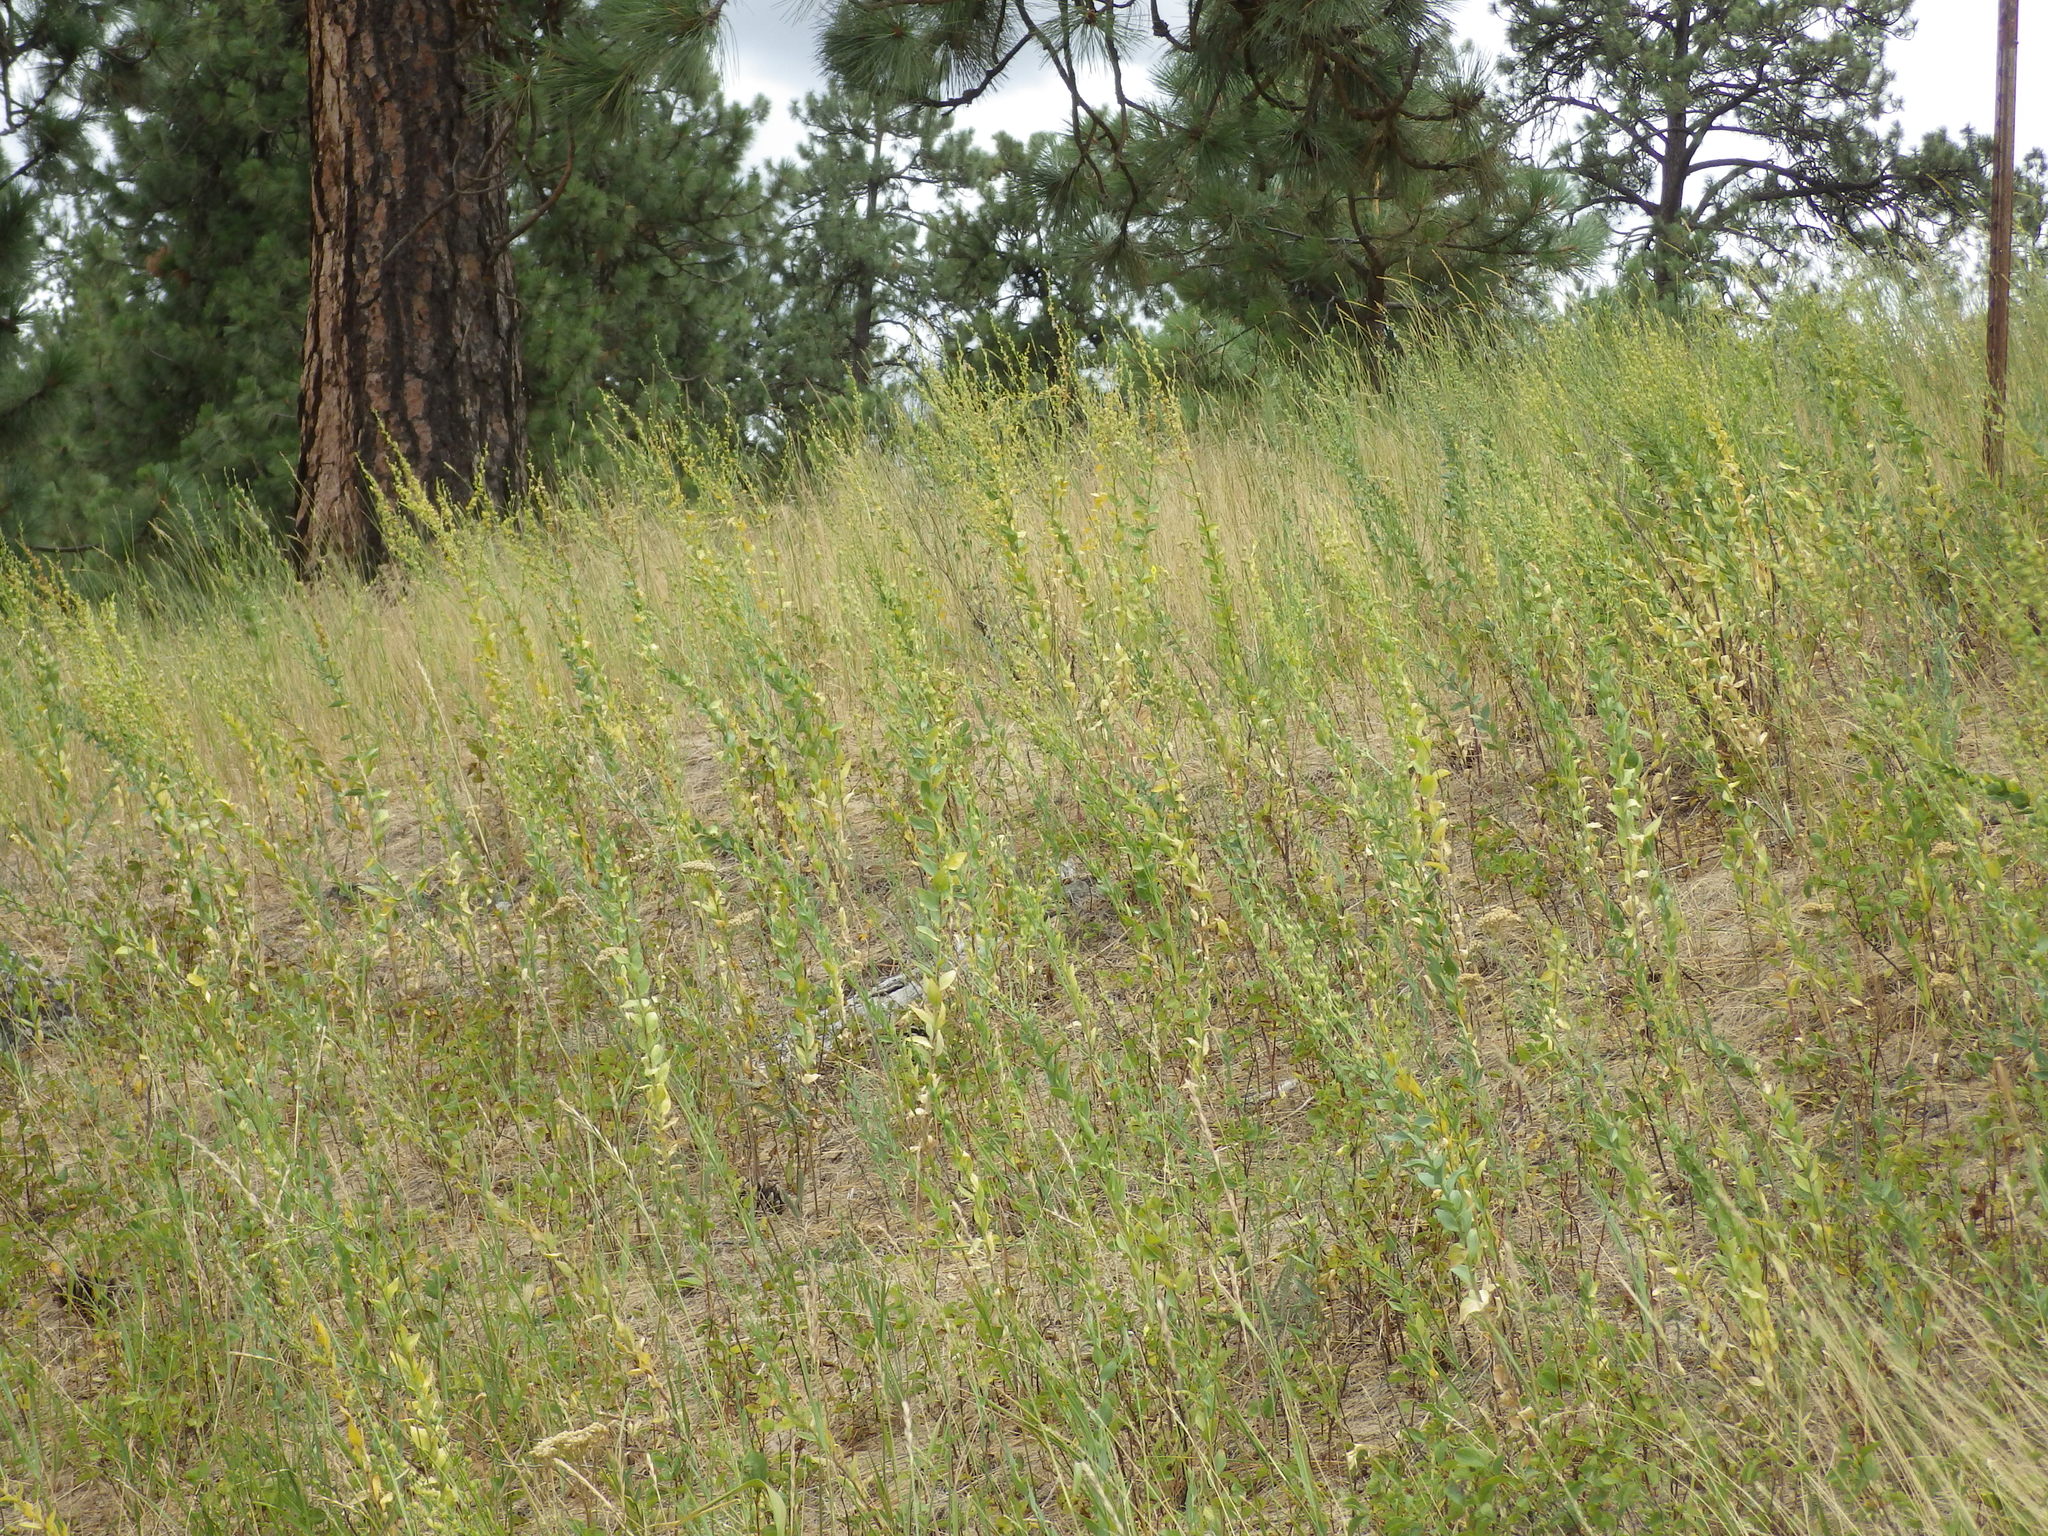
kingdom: Plantae
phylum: Tracheophyta
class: Magnoliopsida
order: Lamiales
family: Plantaginaceae
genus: Linaria
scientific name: Linaria dalmatica
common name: Dalmatian toadflax
